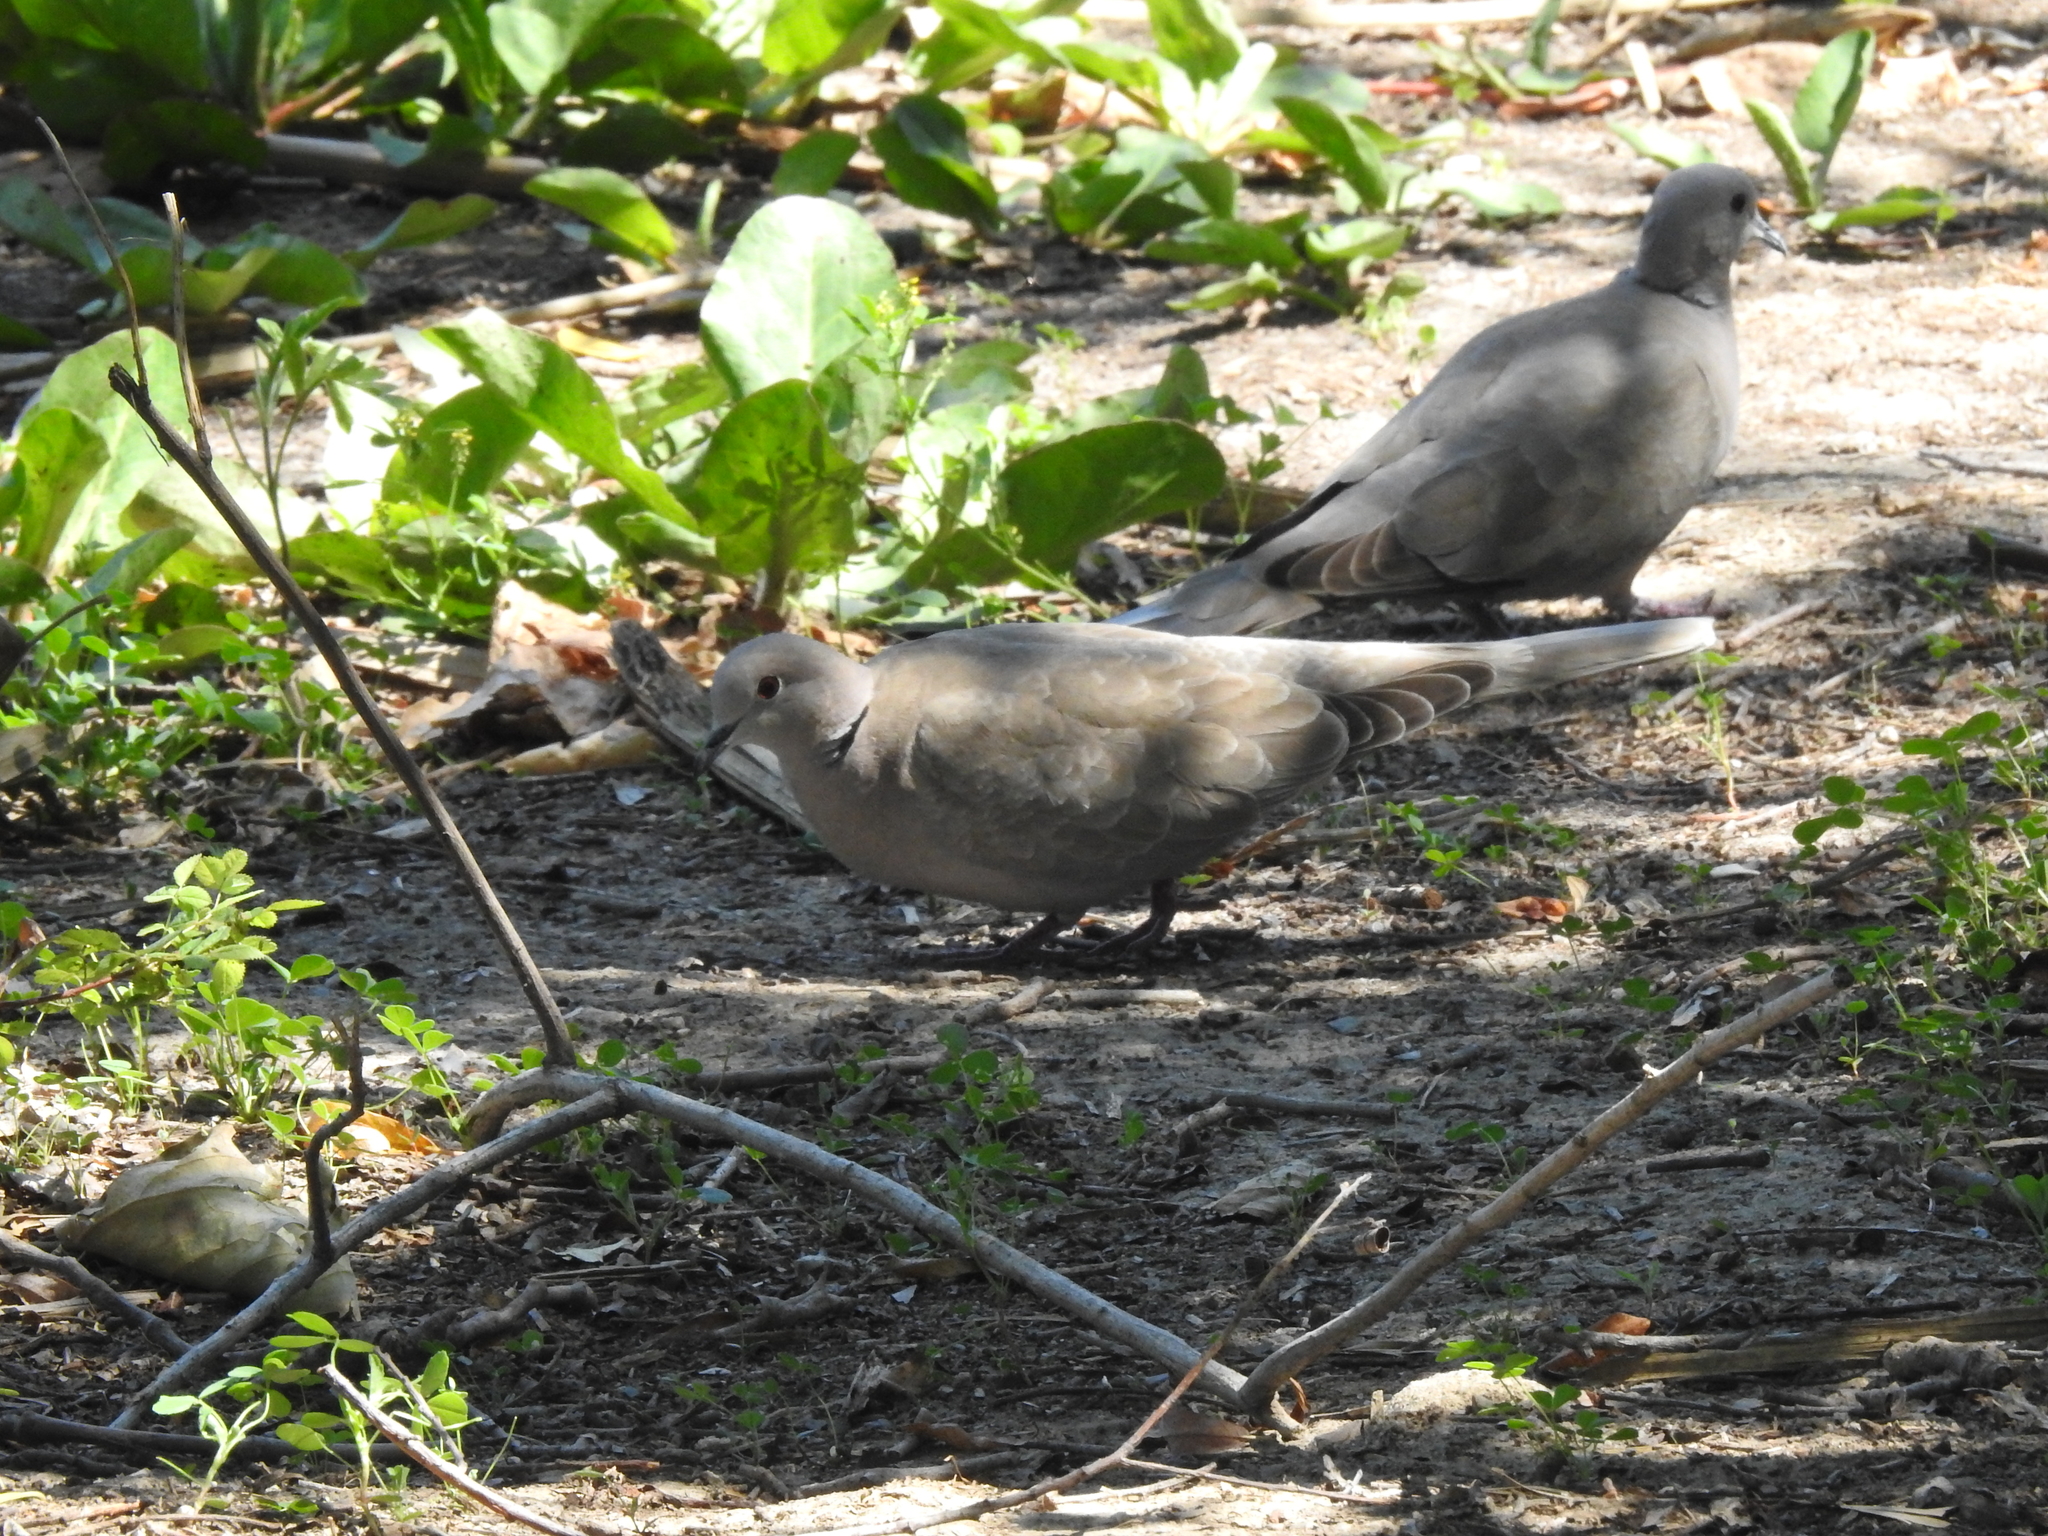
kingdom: Animalia
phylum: Chordata
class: Aves
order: Columbiformes
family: Columbidae
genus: Streptopelia
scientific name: Streptopelia decaocto
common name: Eurasian collared dove
